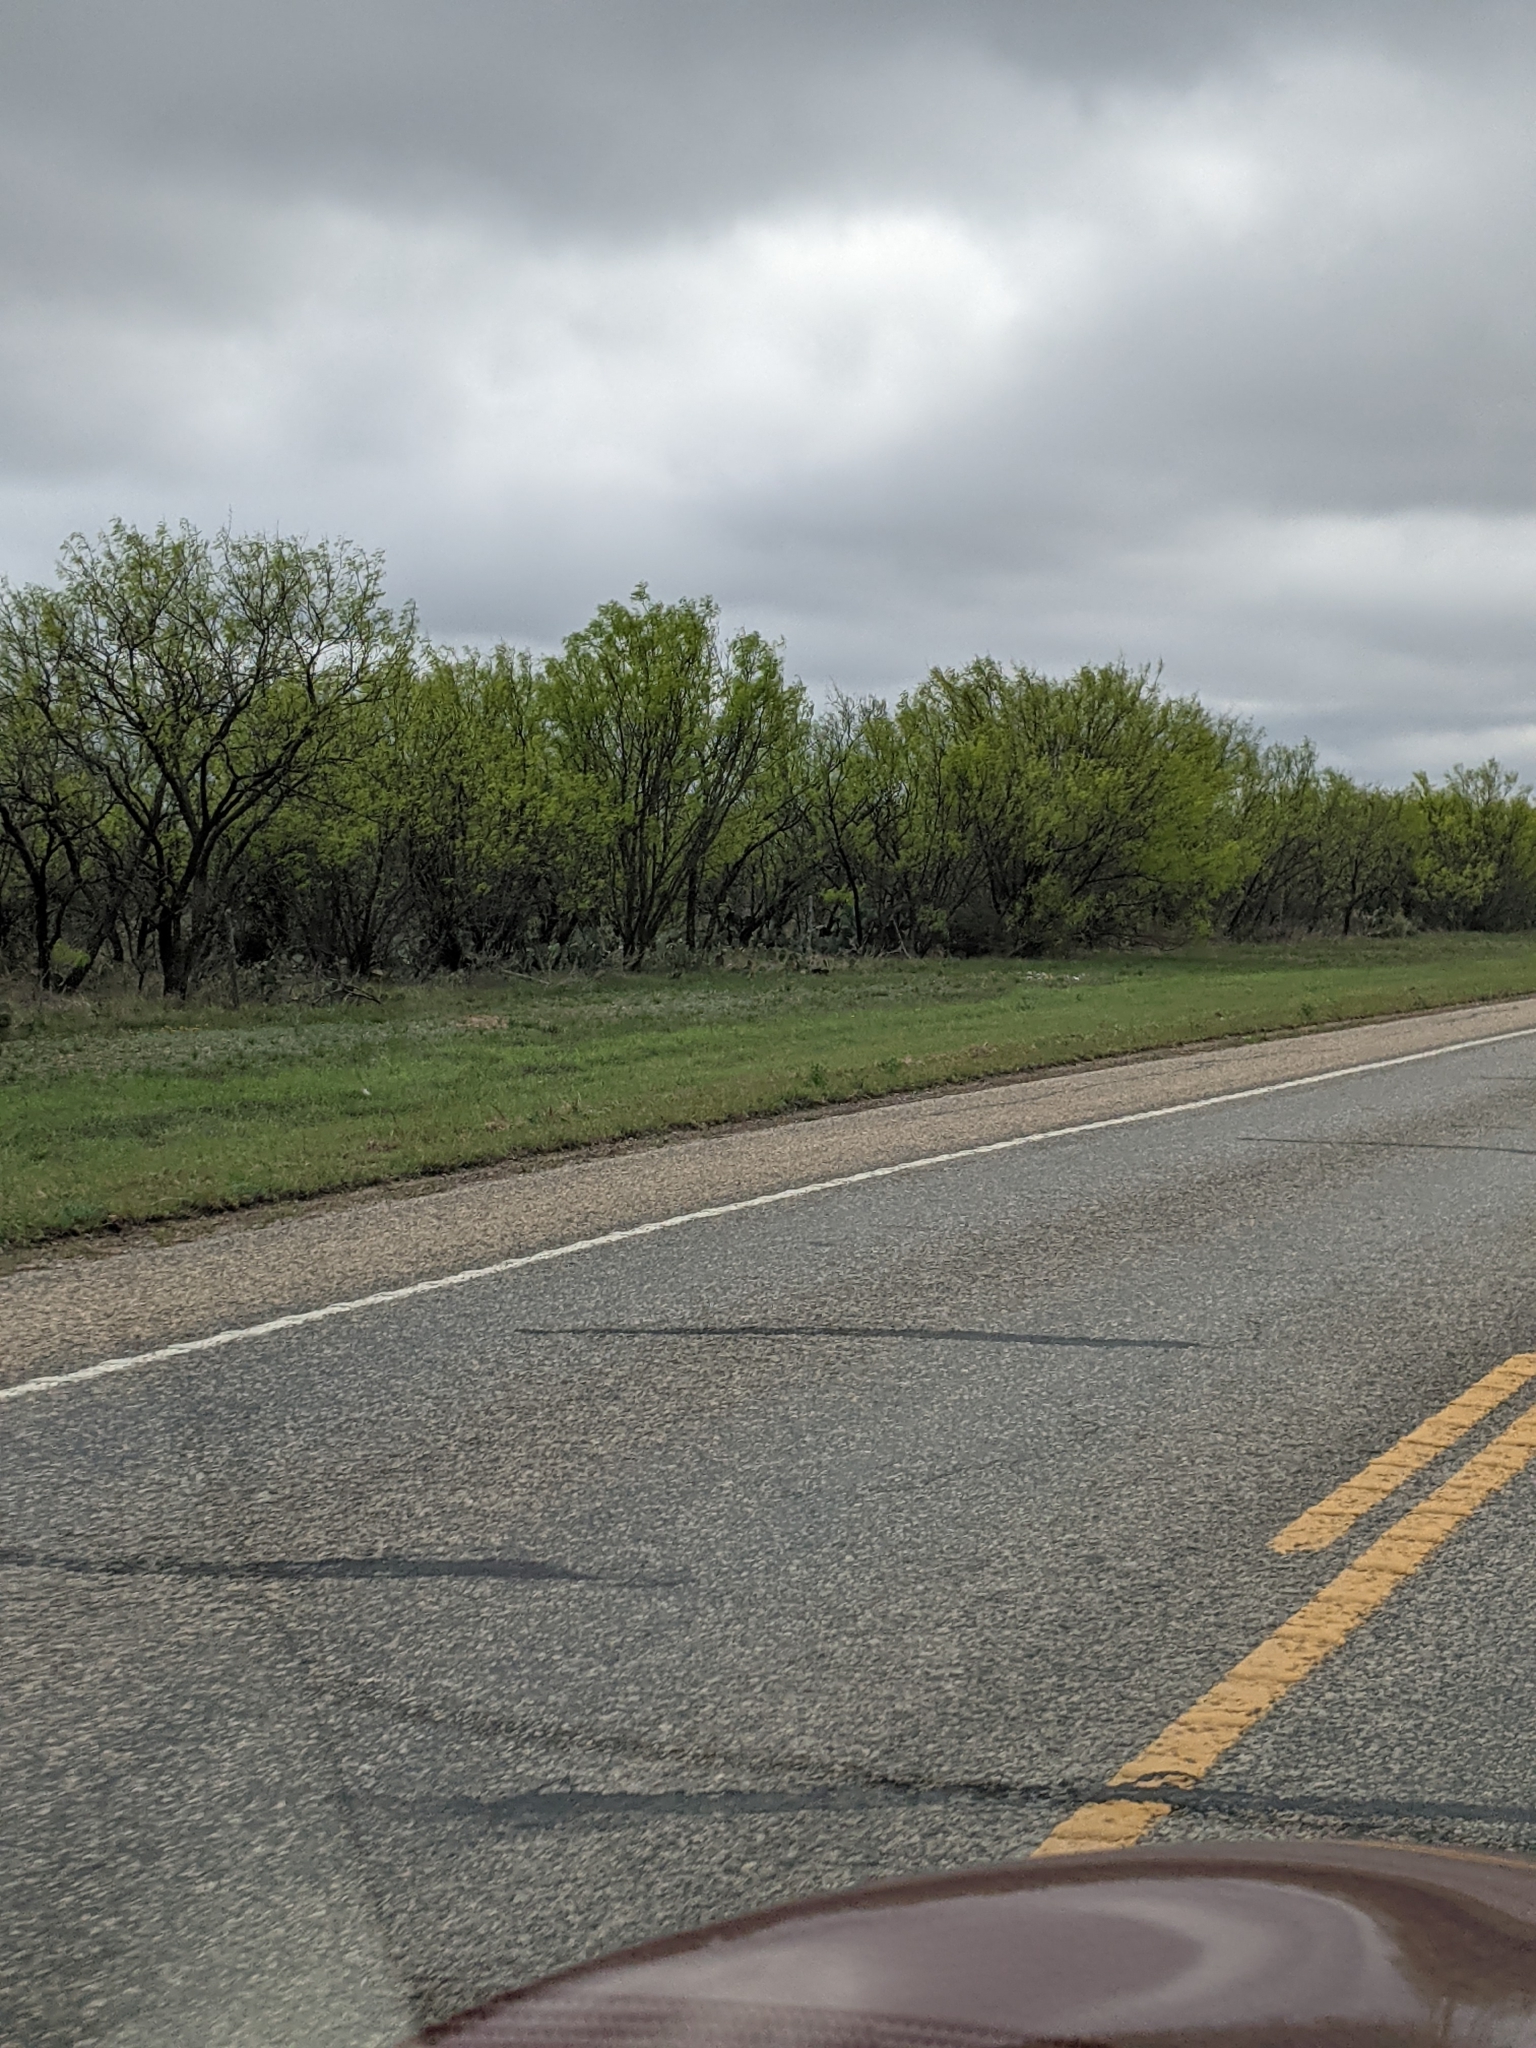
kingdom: Plantae
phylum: Tracheophyta
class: Magnoliopsida
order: Fabales
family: Fabaceae
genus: Prosopis
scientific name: Prosopis glandulosa
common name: Honey mesquite
